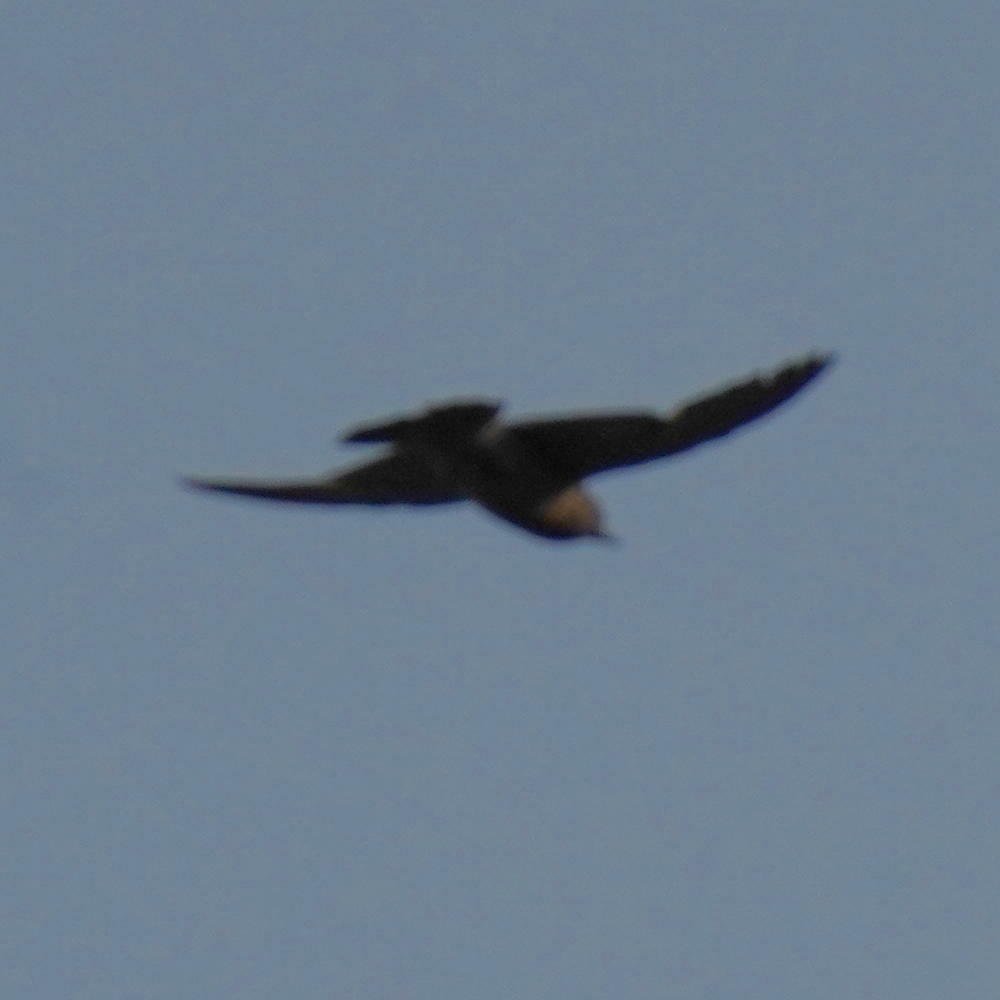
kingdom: Animalia
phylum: Chordata
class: Aves
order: Apodiformes
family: Apodidae
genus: Apus
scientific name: Apus affinis
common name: Little swift
